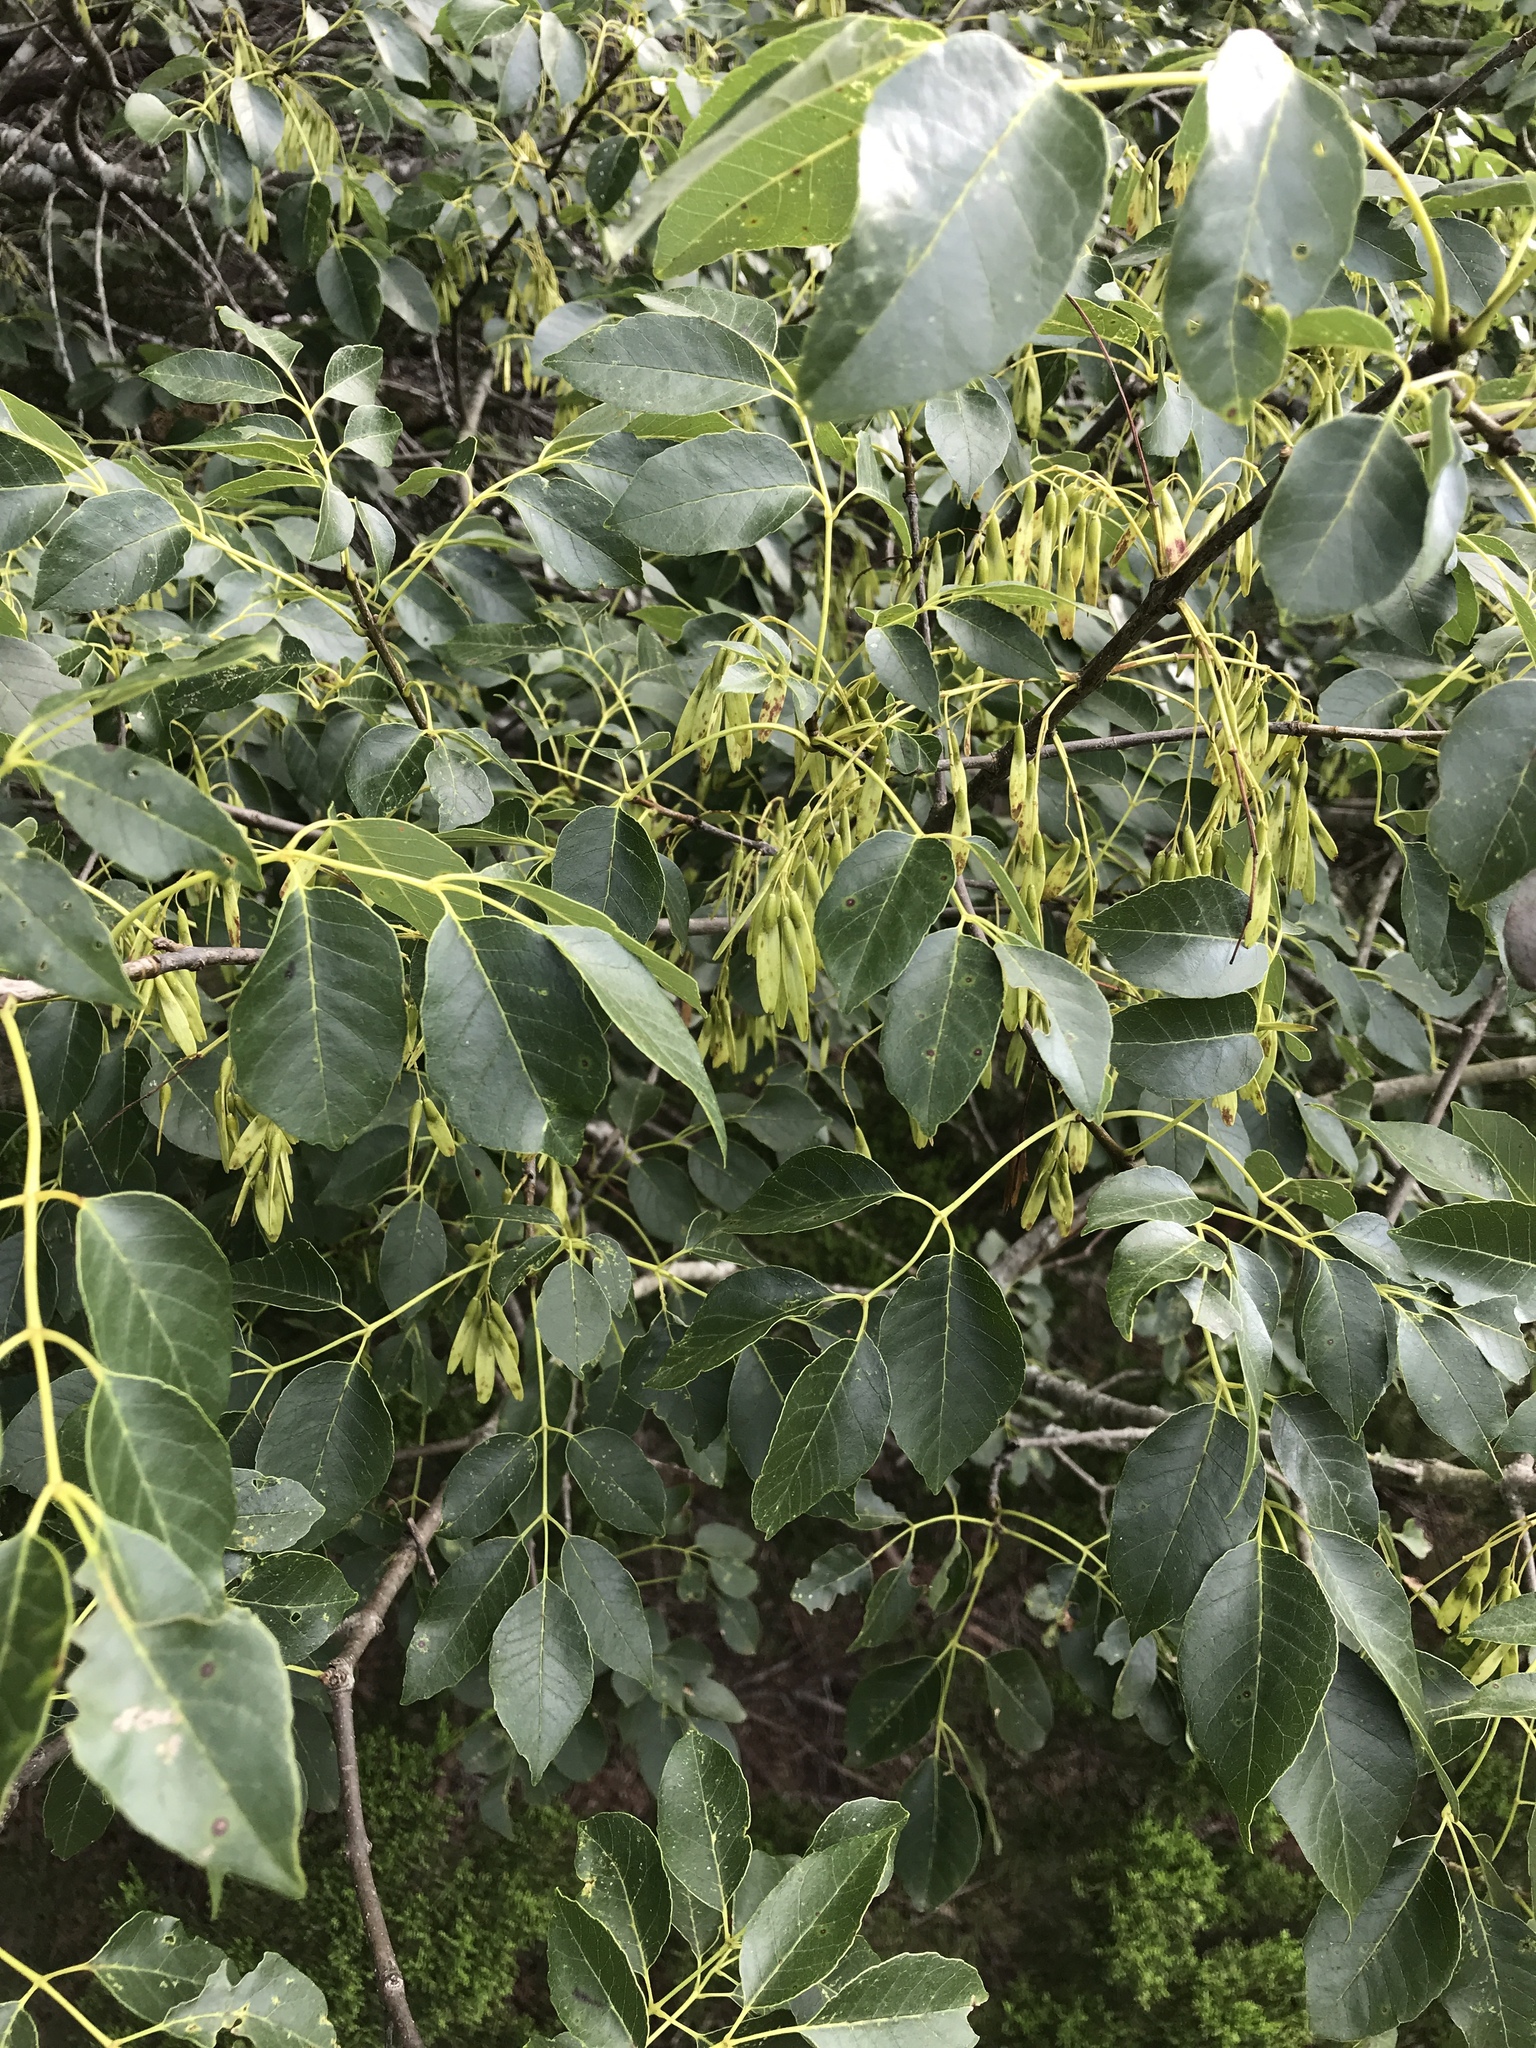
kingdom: Plantae
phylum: Tracheophyta
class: Magnoliopsida
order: Lamiales
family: Oleaceae
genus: Fraxinus
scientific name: Fraxinus albicans
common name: Texas ash
